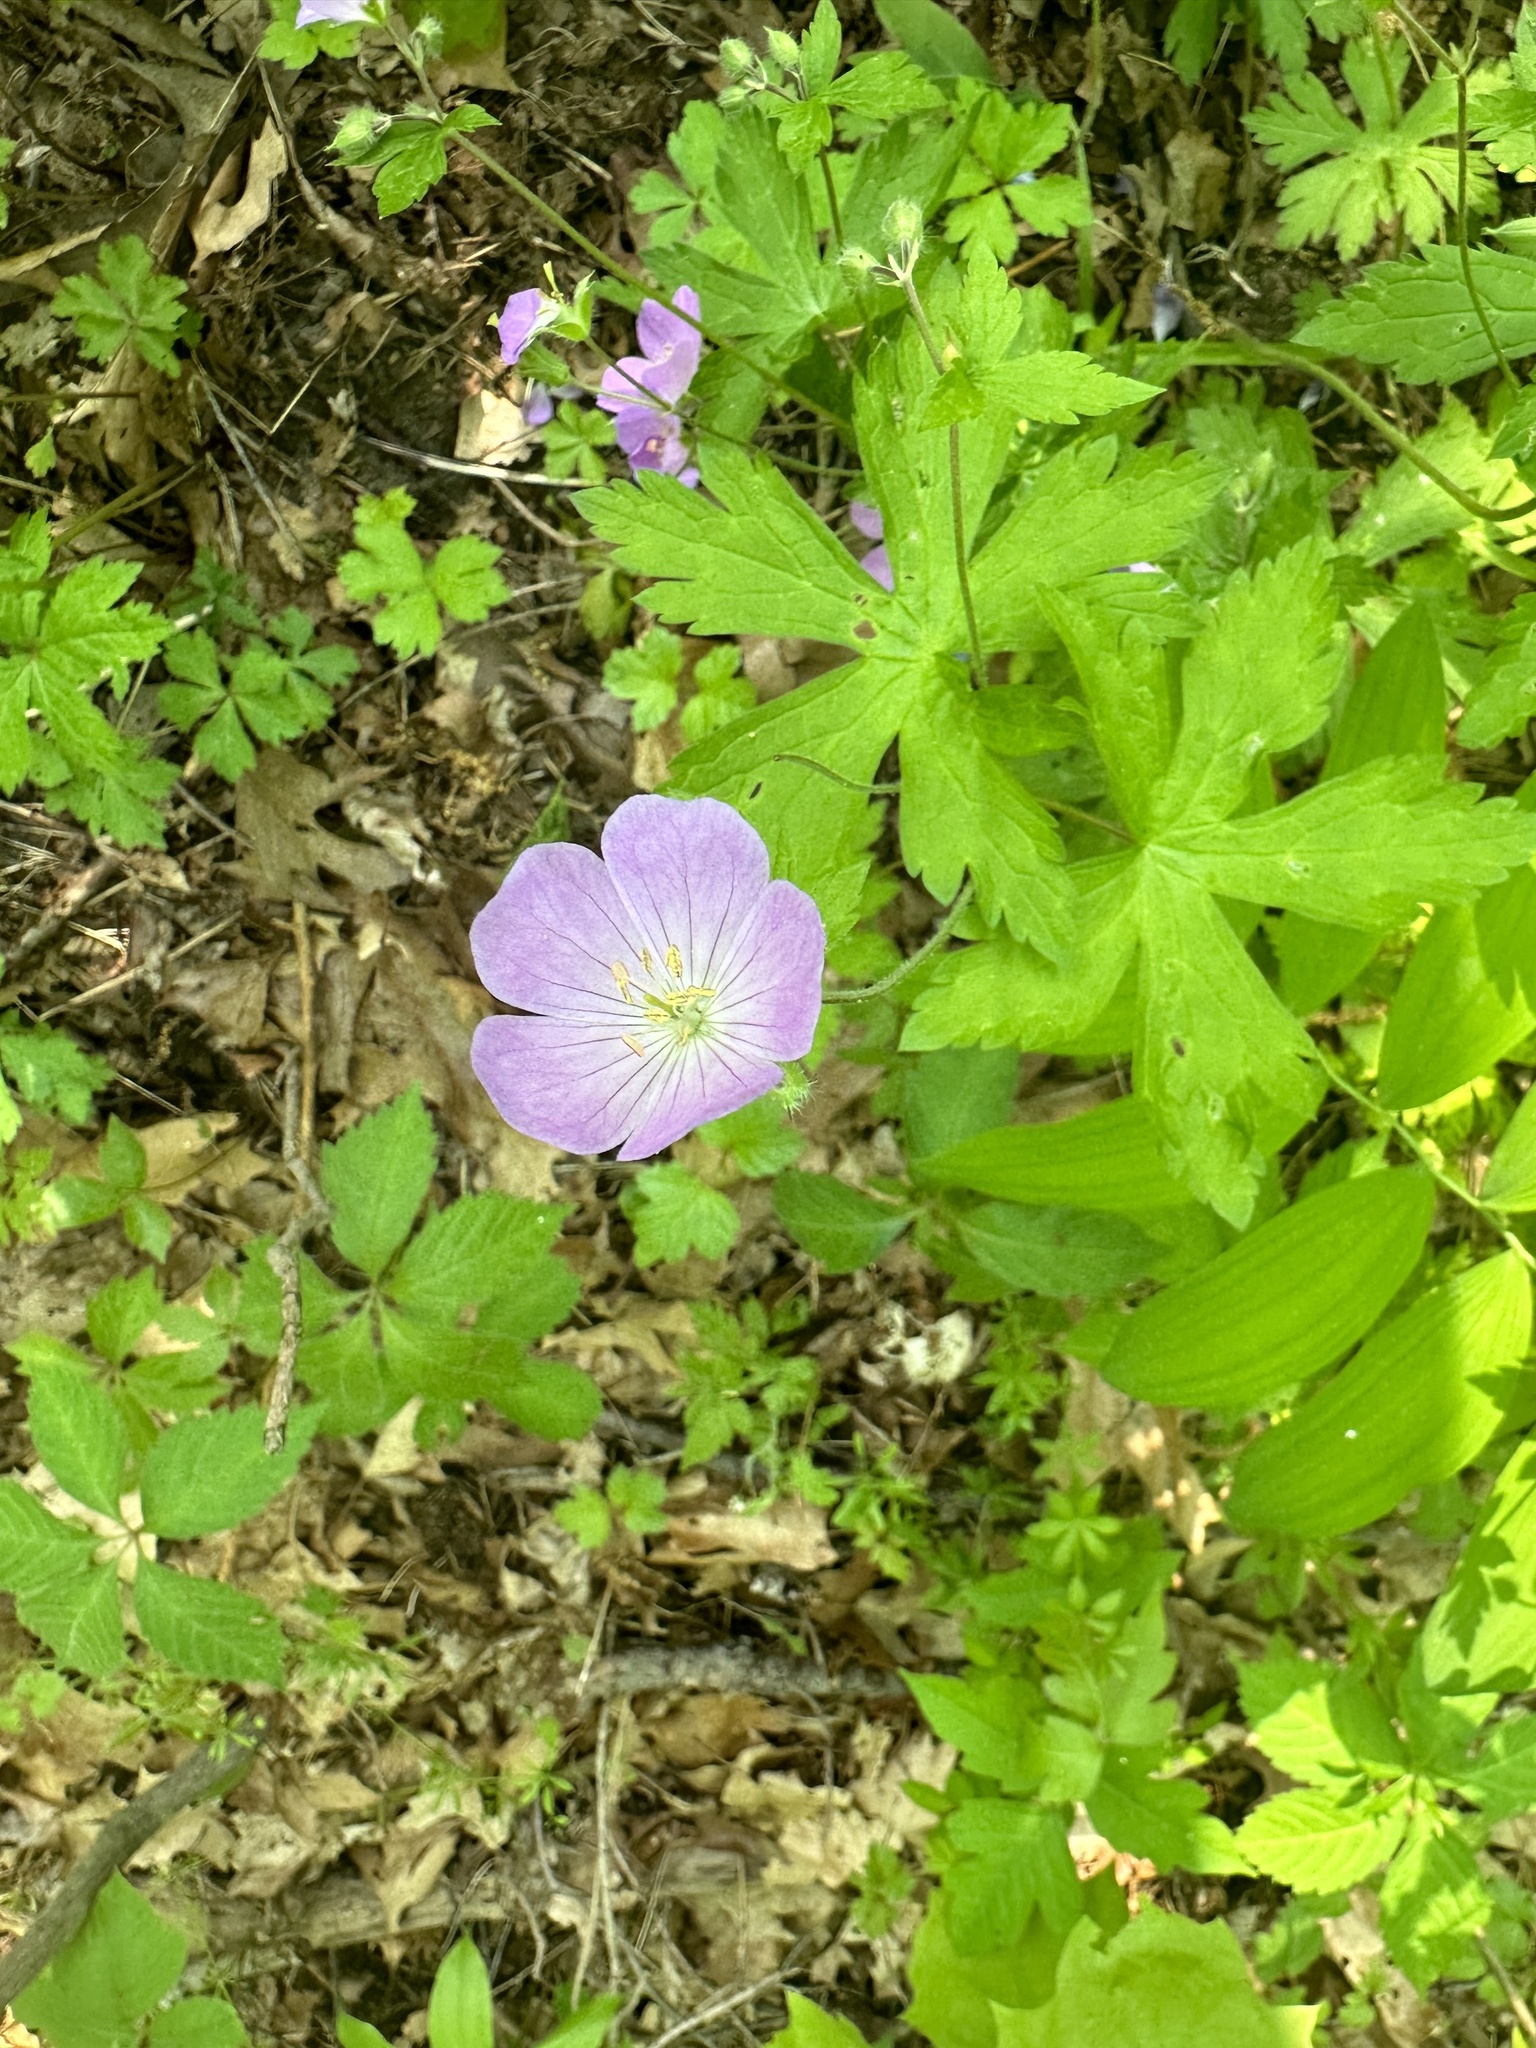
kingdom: Plantae
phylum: Tracheophyta
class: Magnoliopsida
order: Geraniales
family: Geraniaceae
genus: Geranium
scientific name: Geranium maculatum
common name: Spotted geranium
